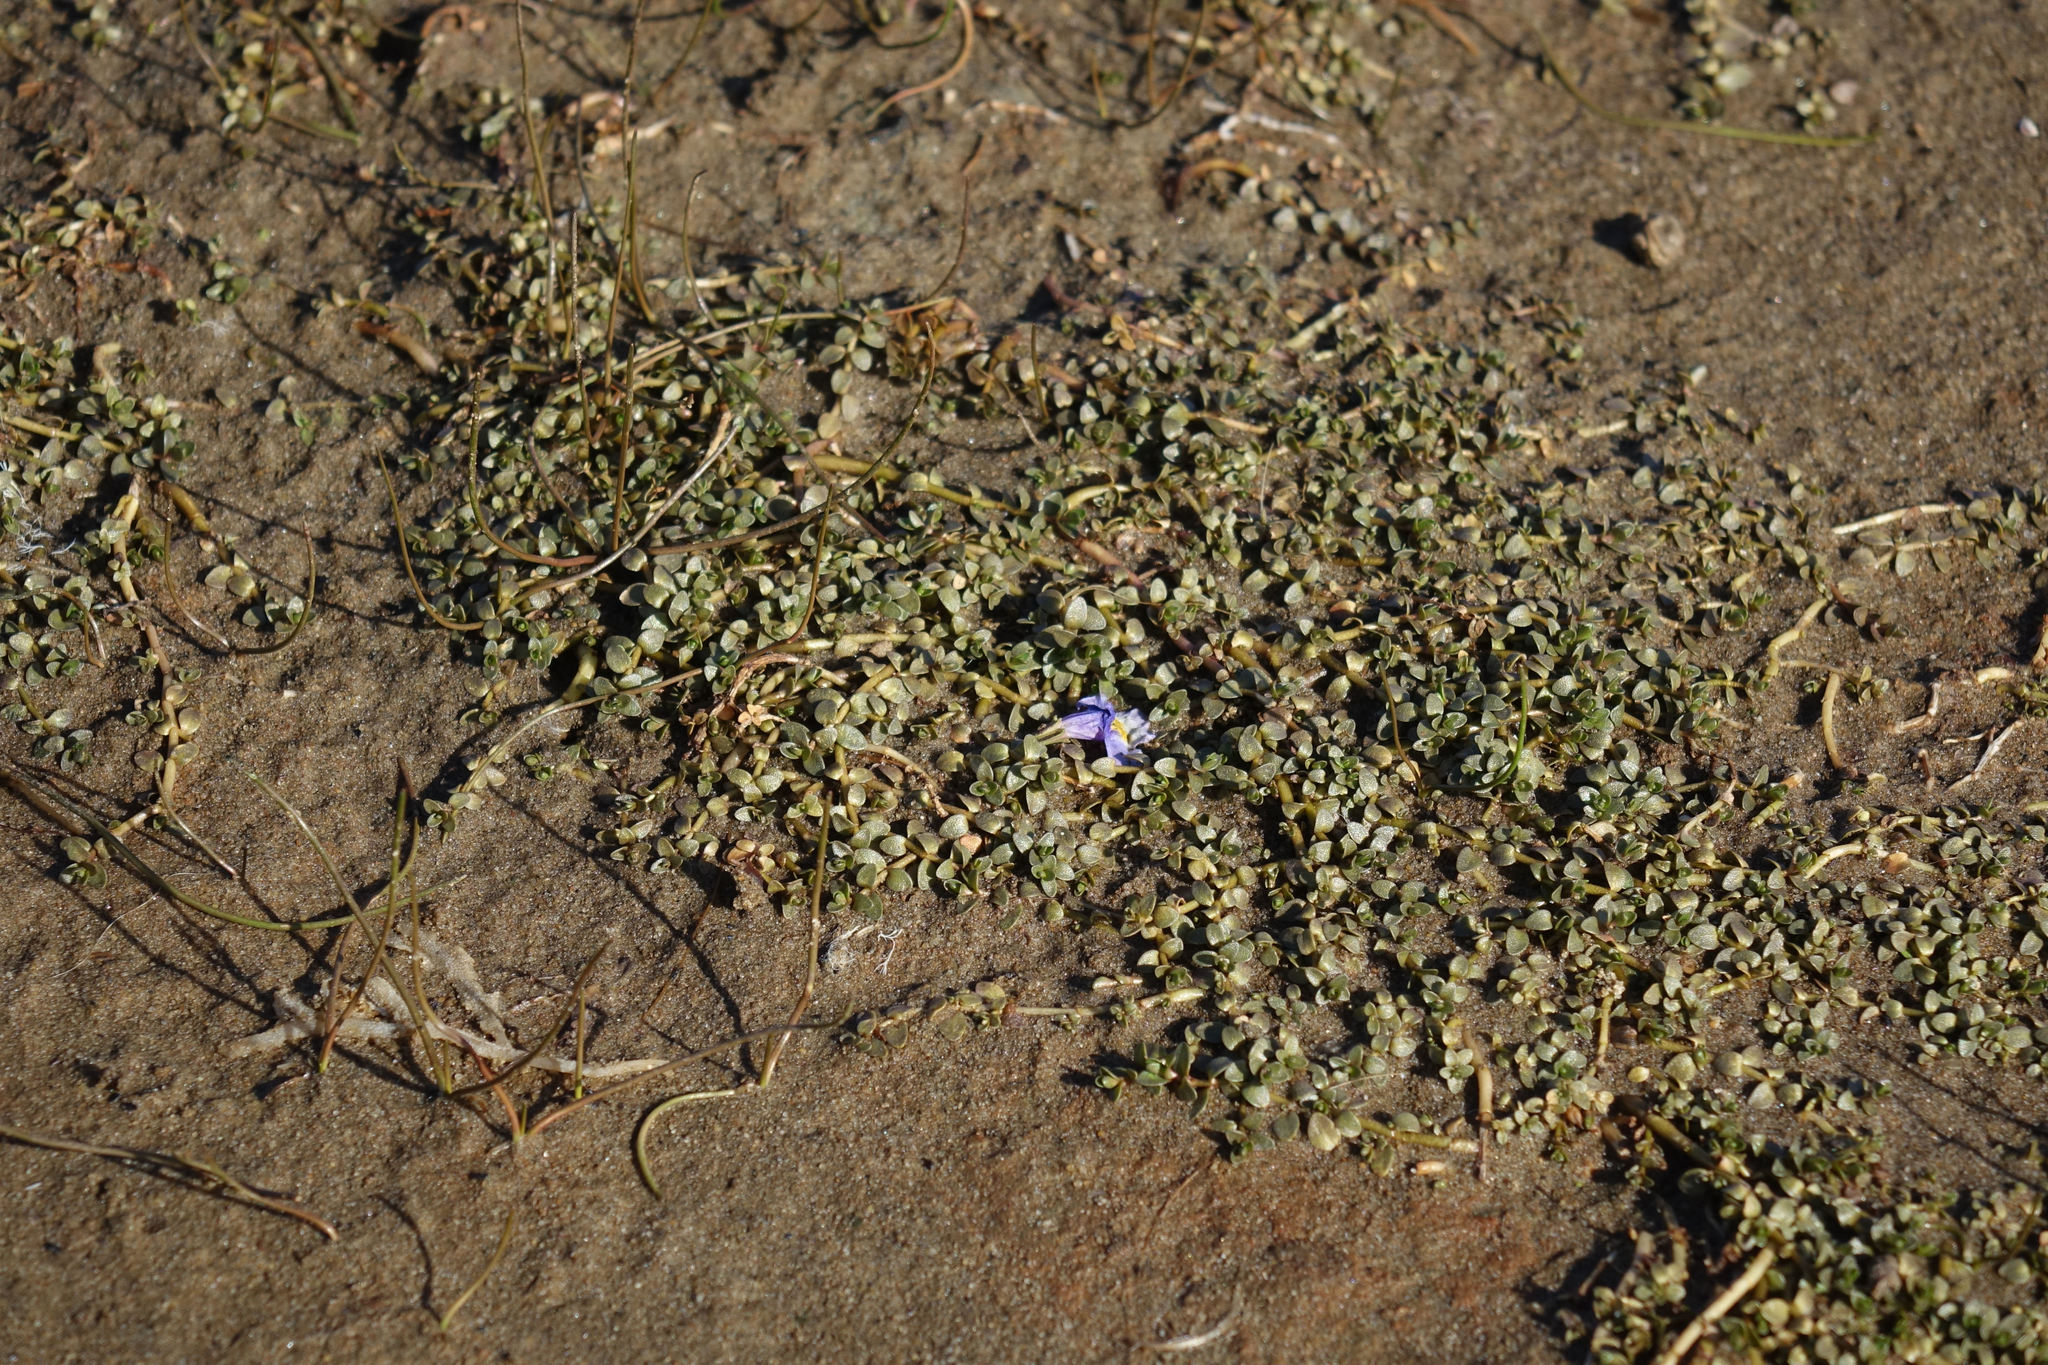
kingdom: Plantae
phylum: Tracheophyta
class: Magnoliopsida
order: Lamiales
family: Phrymaceae
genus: Thyridia
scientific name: Thyridia repens
